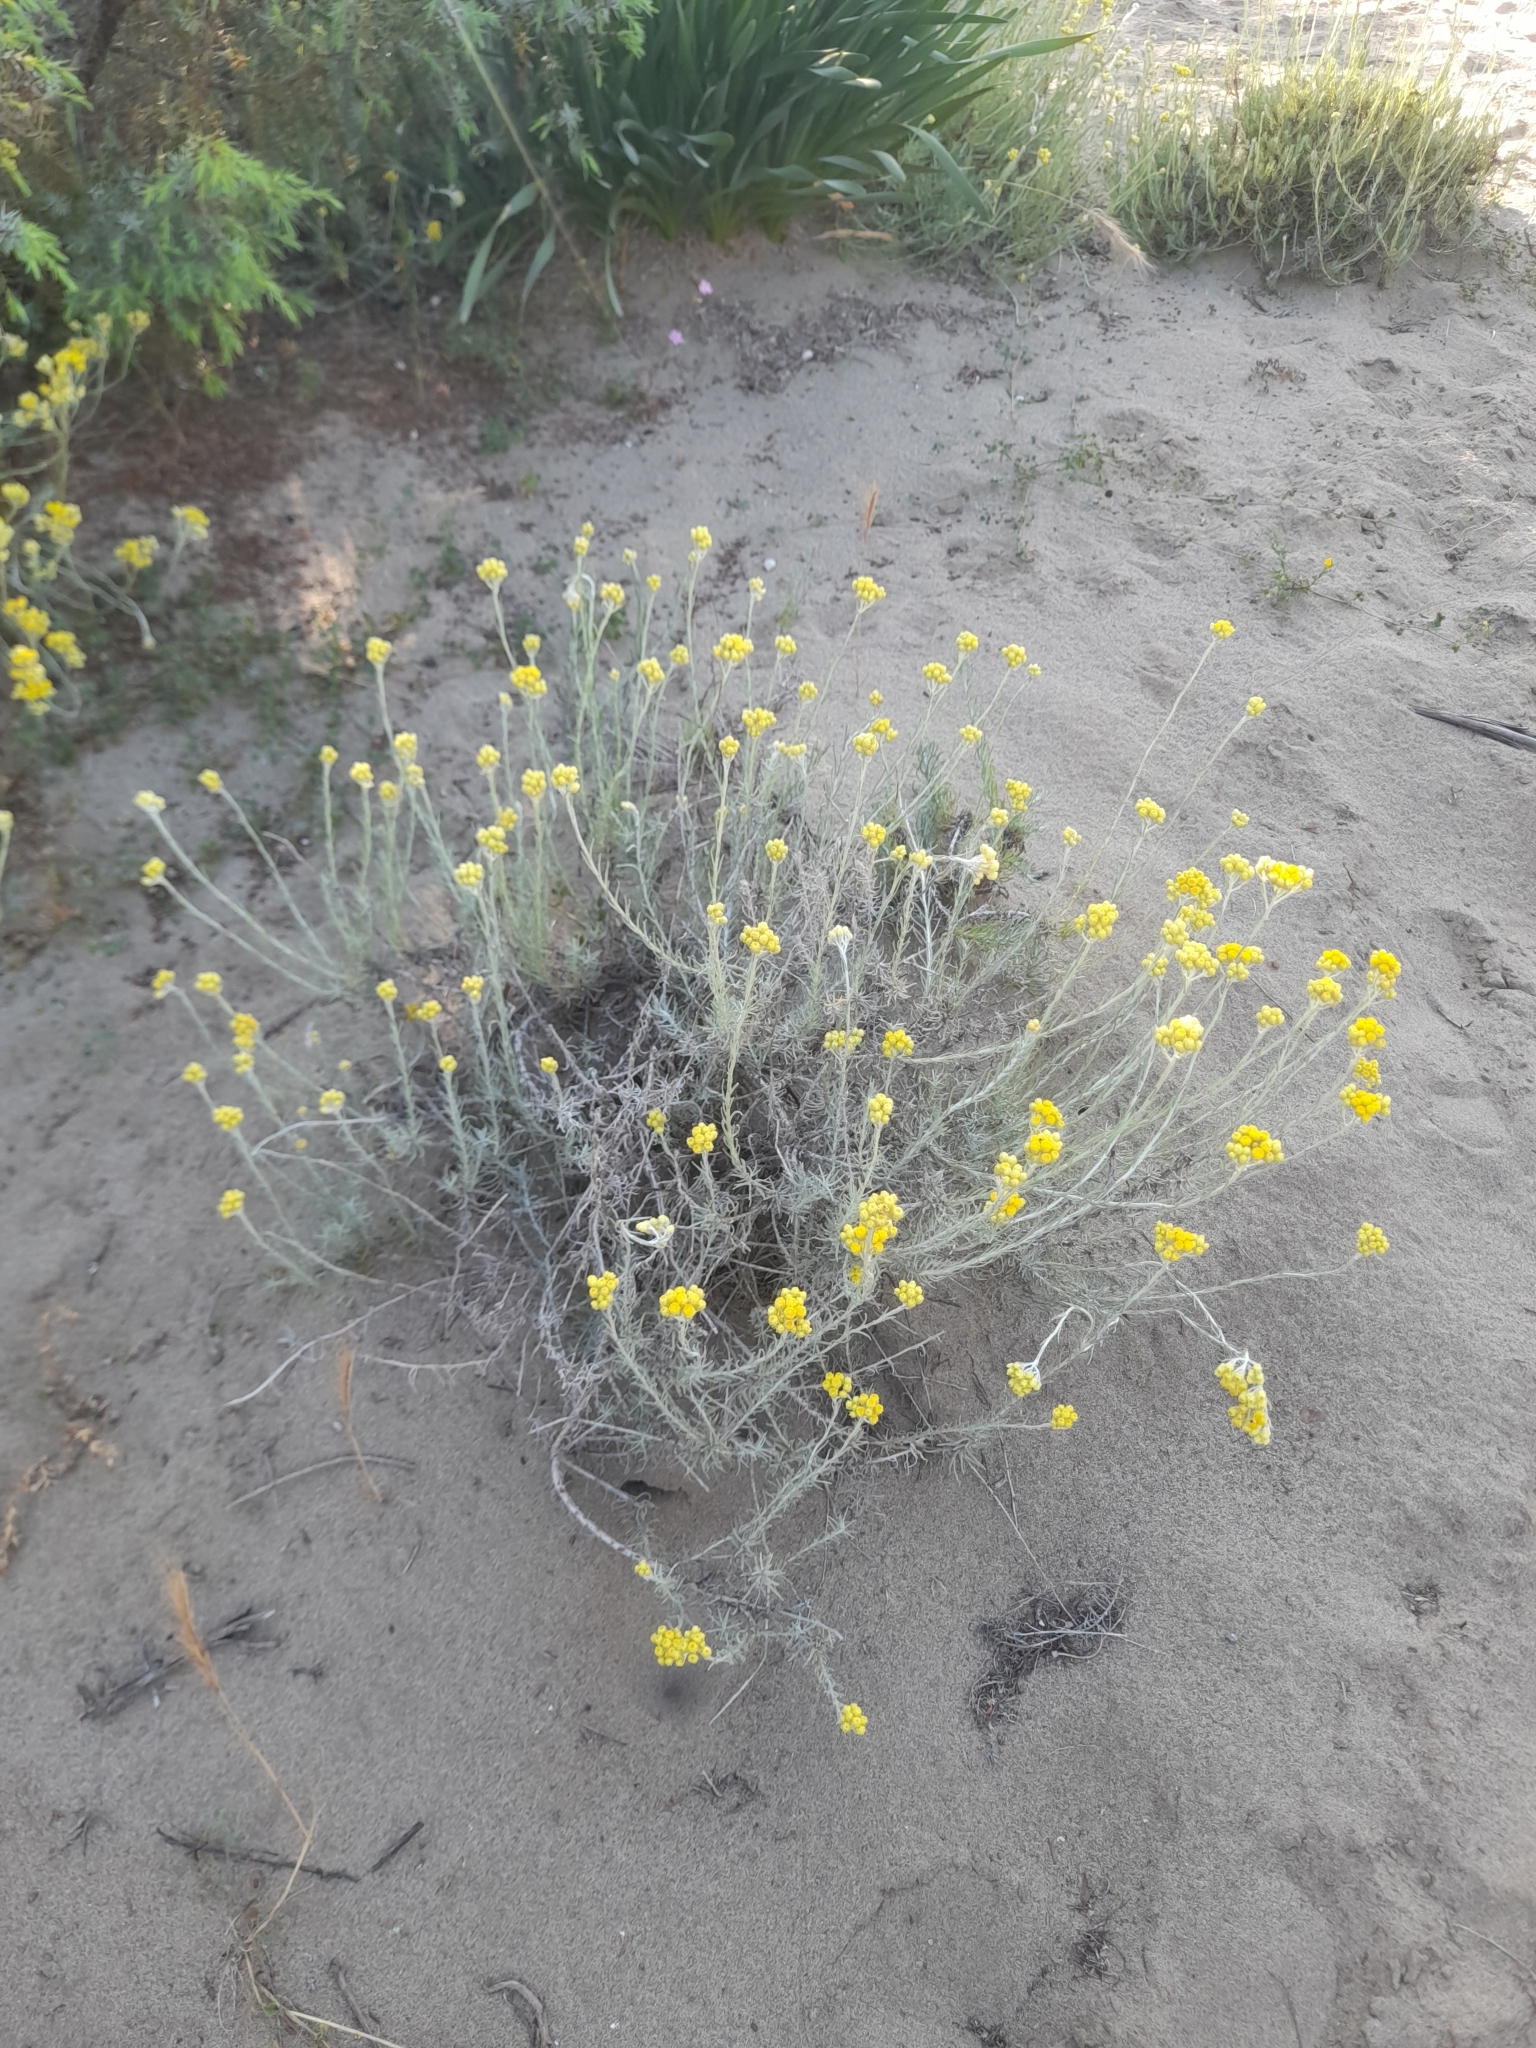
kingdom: Plantae
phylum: Tracheophyta
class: Magnoliopsida
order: Asterales
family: Asteraceae
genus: Helichrysum
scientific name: Helichrysum stoechas
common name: Goldilocks
